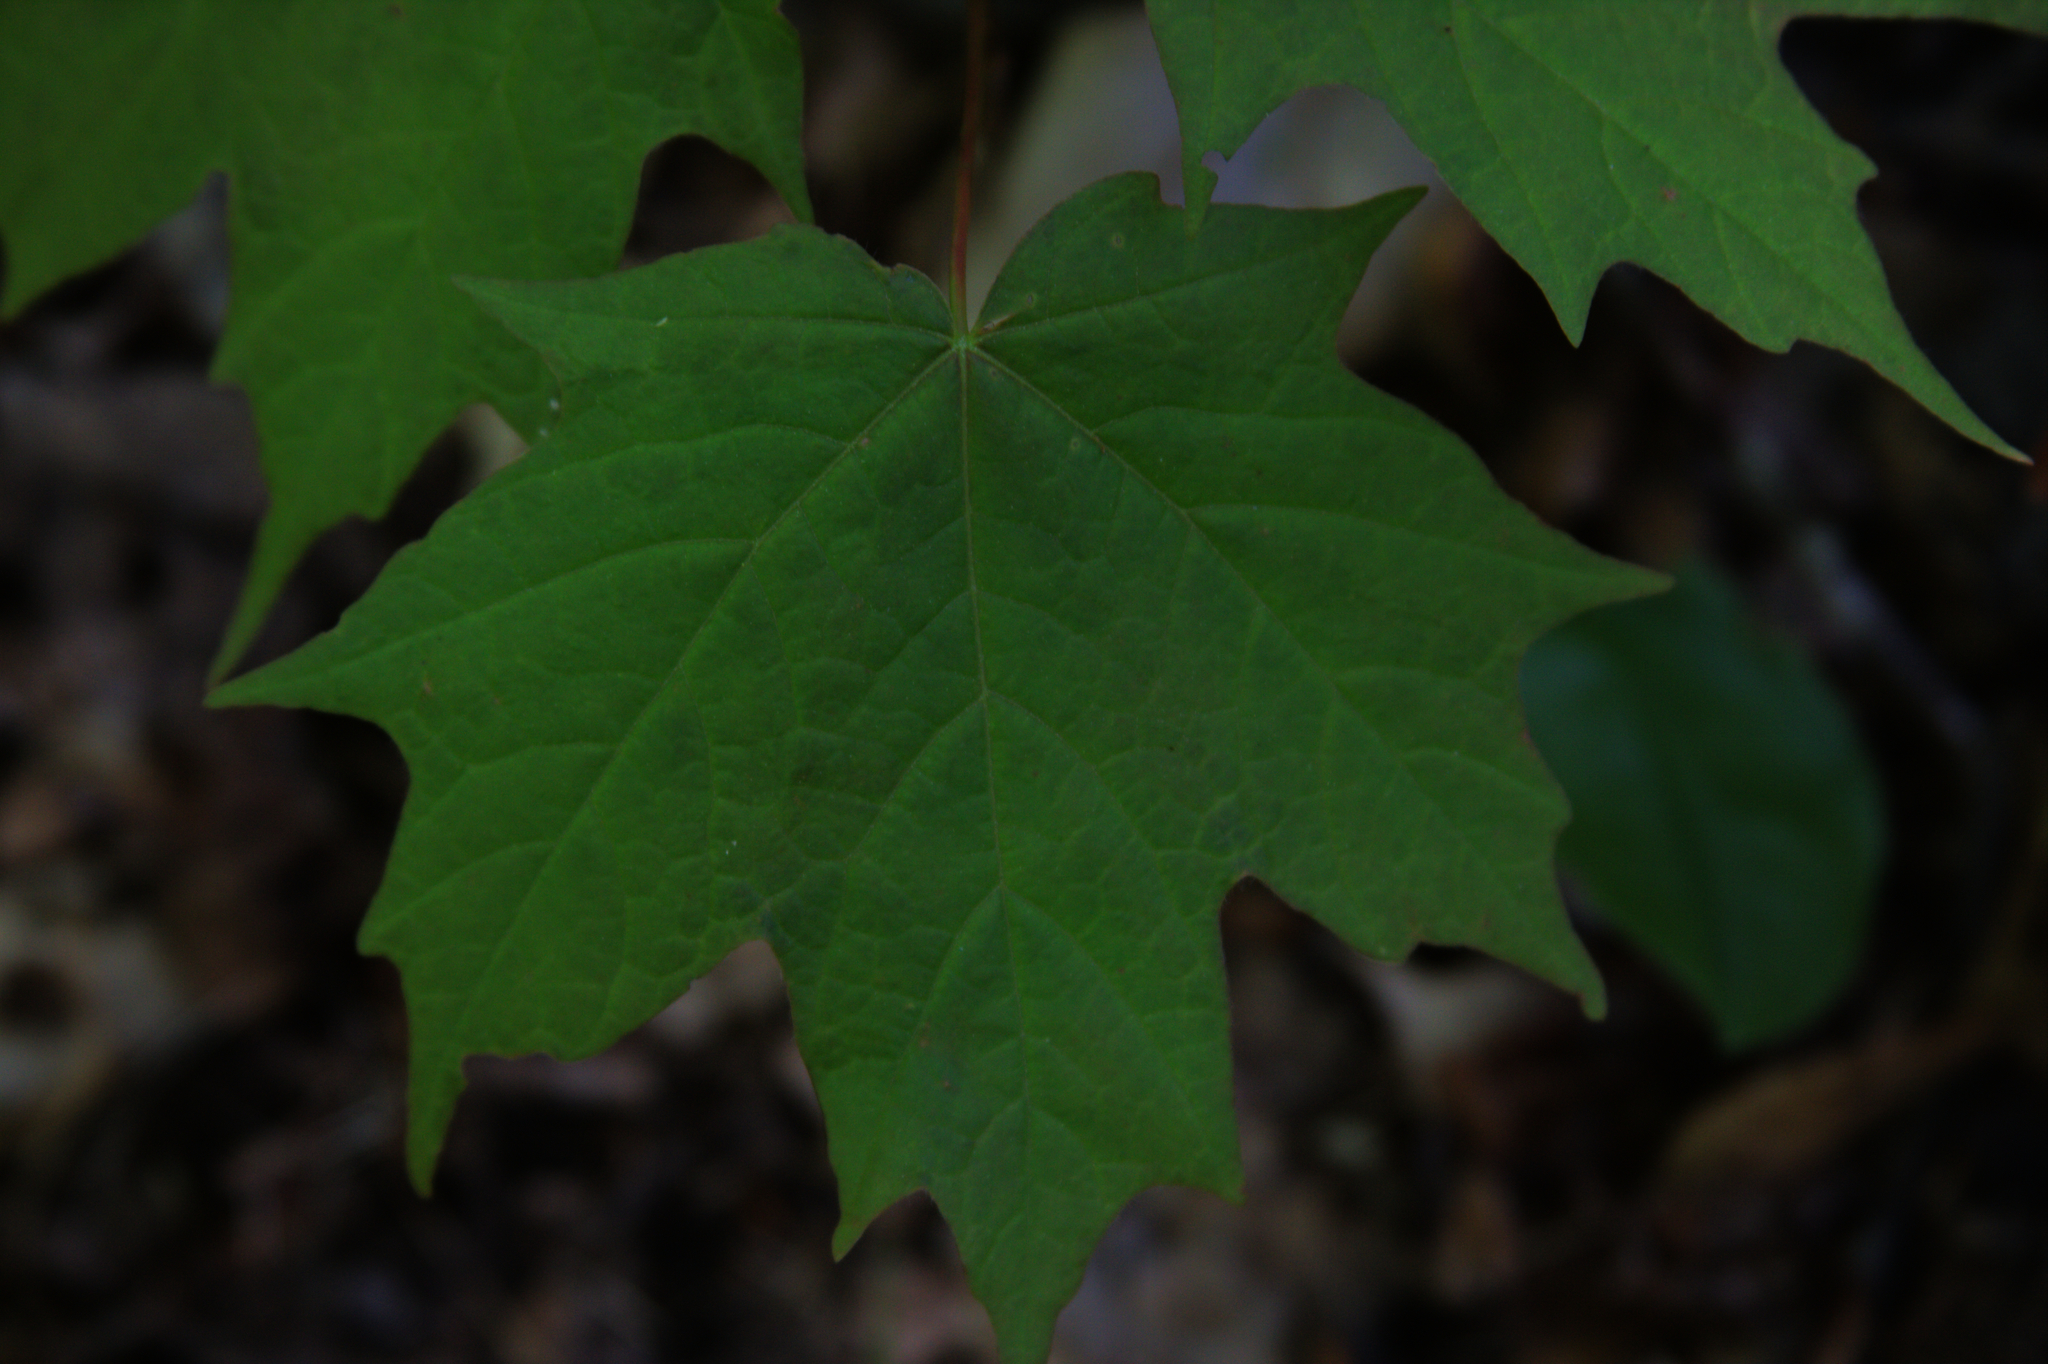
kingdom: Plantae
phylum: Tracheophyta
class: Magnoliopsida
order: Sapindales
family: Sapindaceae
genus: Acer
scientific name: Acer saccharum
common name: Sugar maple
